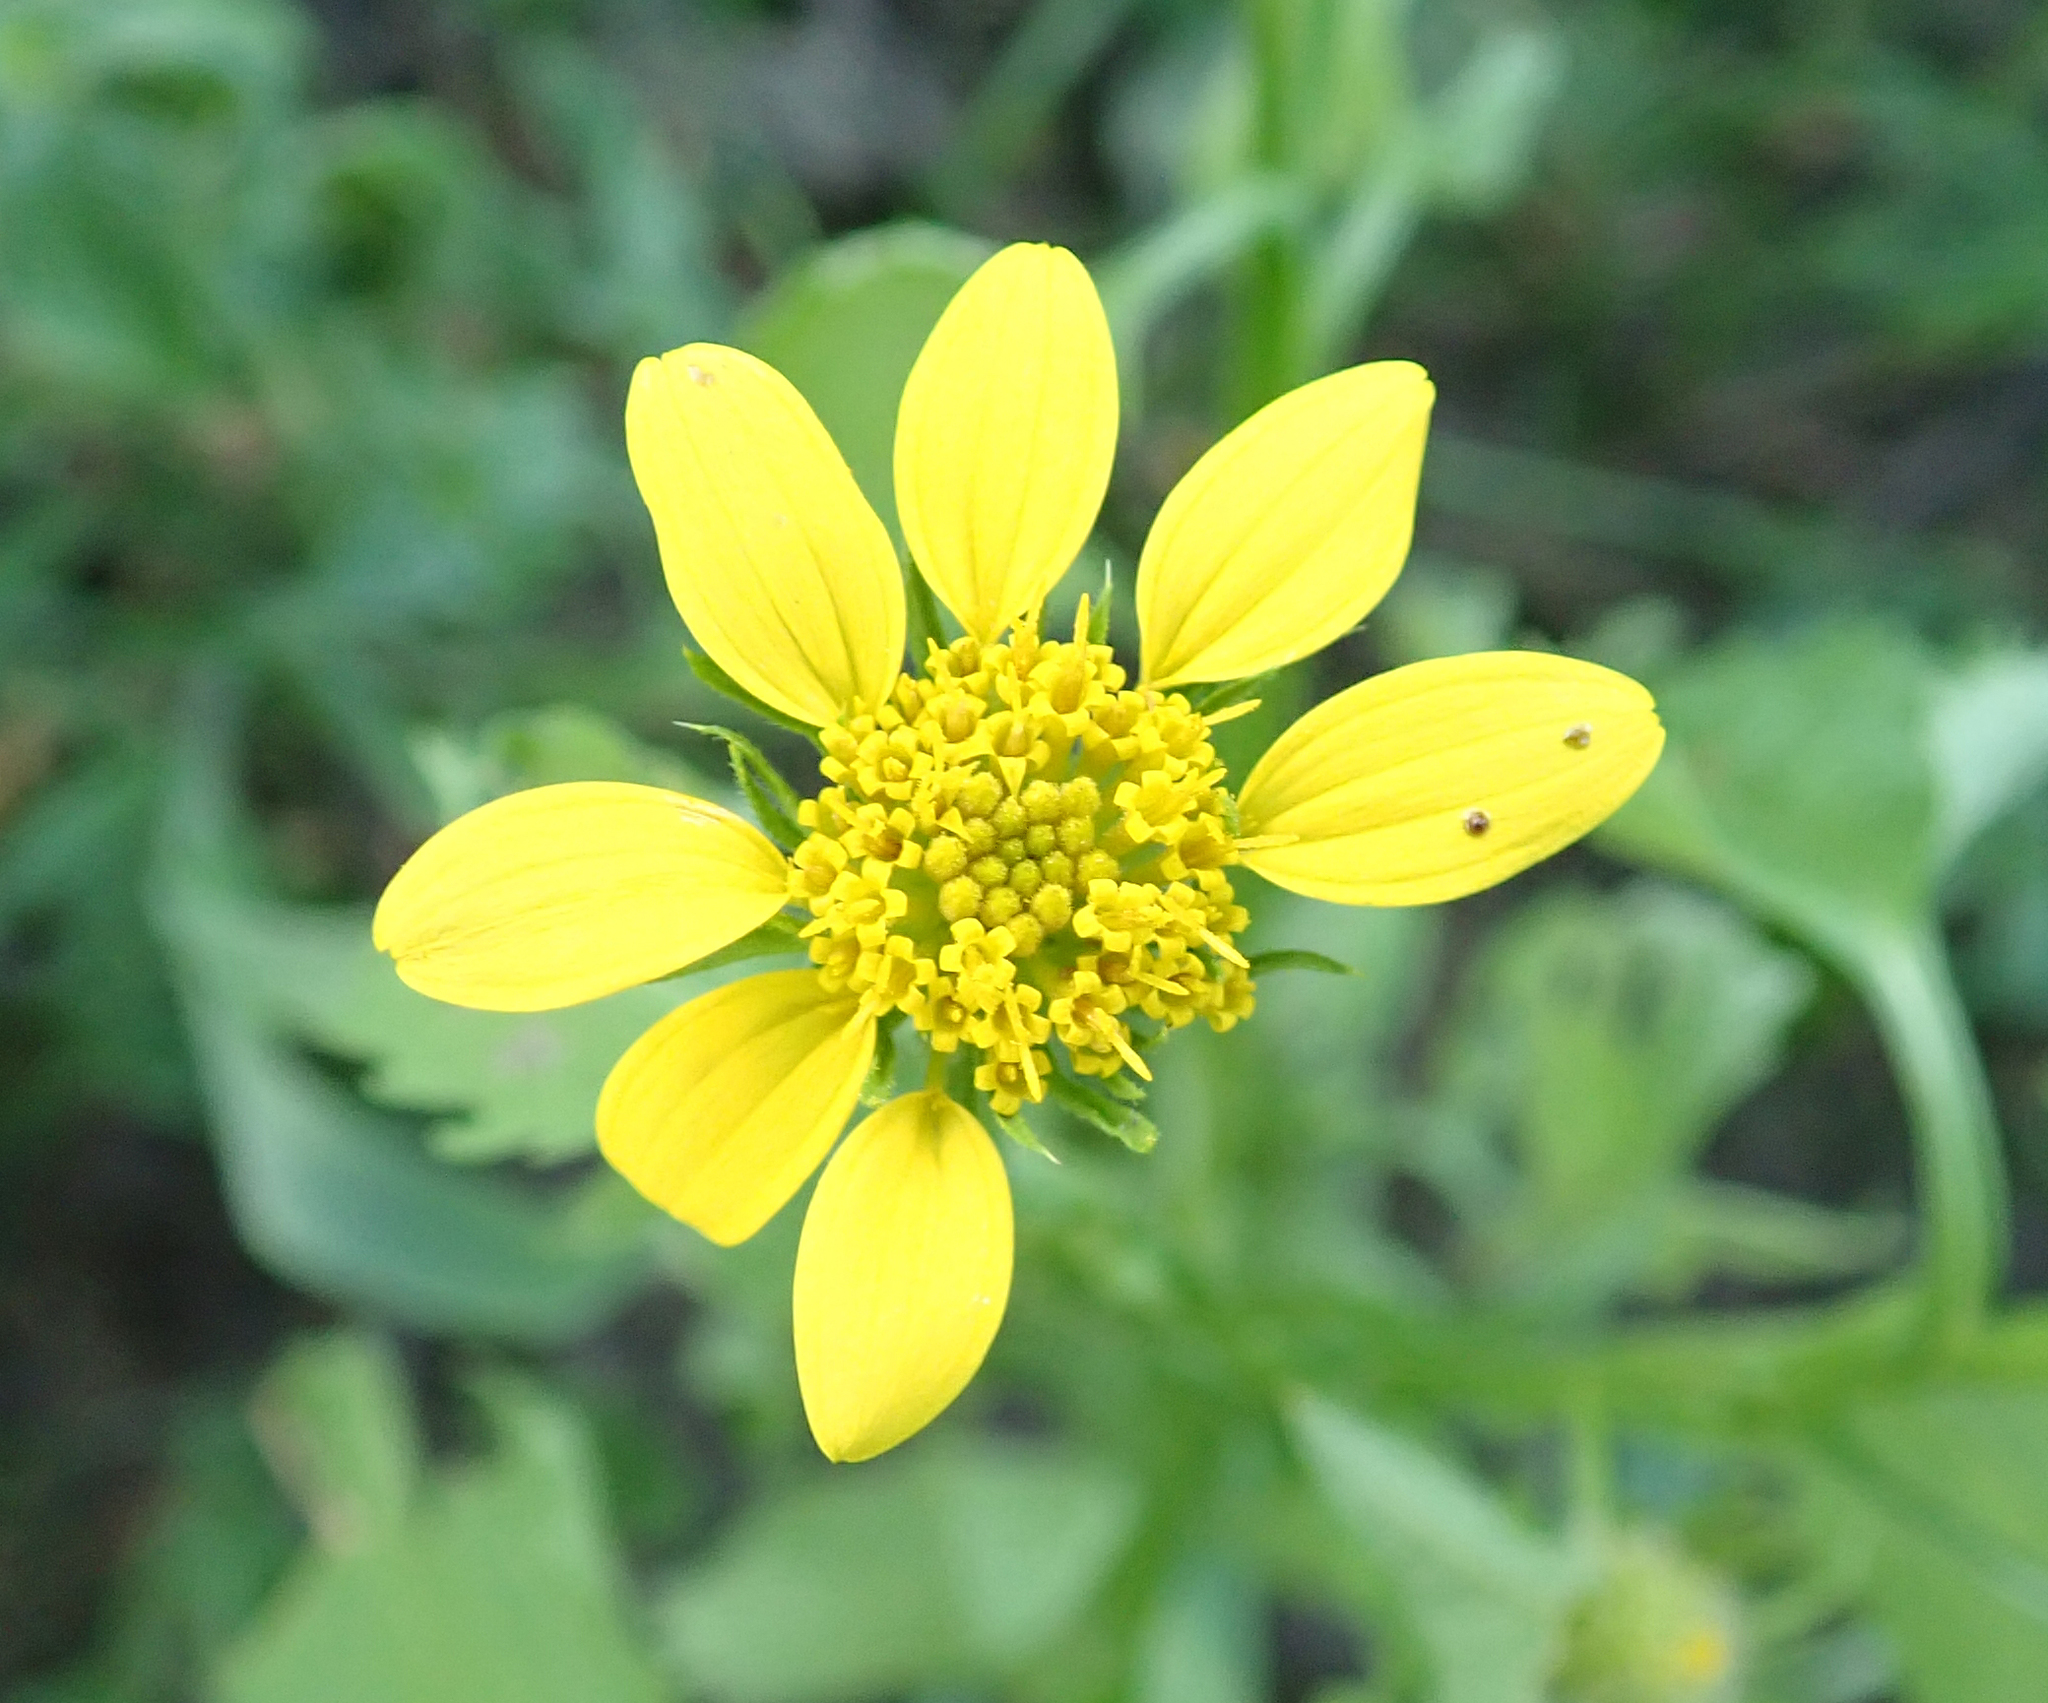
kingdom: Plantae
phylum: Tracheophyta
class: Magnoliopsida
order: Asterales
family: Asteraceae
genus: Calostephane
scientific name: Calostephane divaricata
